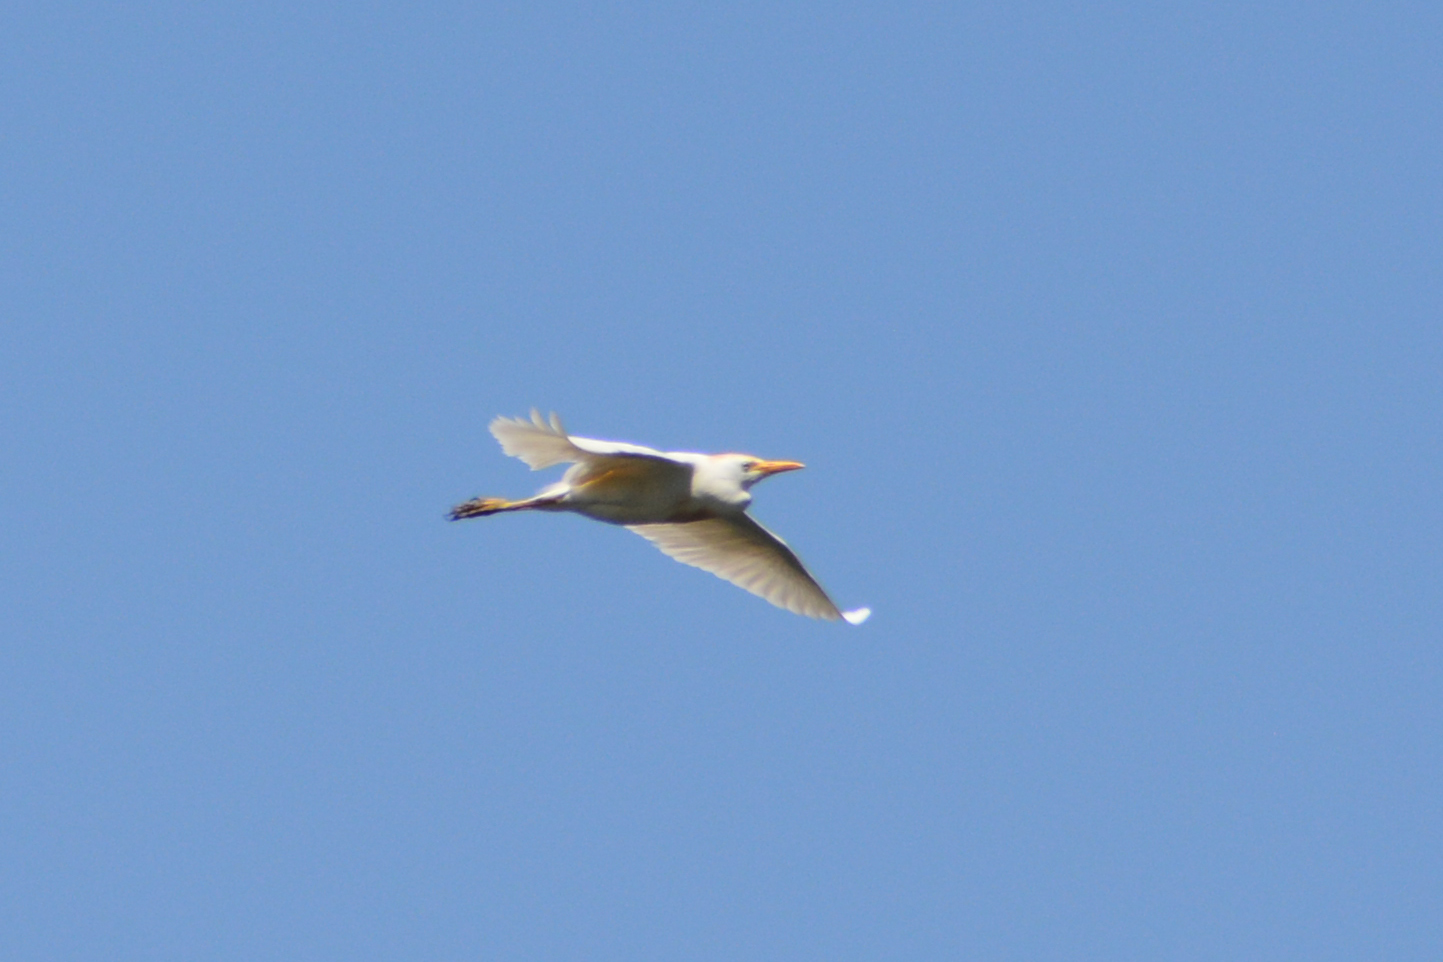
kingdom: Animalia
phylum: Chordata
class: Aves
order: Pelecaniformes
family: Ardeidae
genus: Bubulcus
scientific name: Bubulcus ibis
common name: Cattle egret
